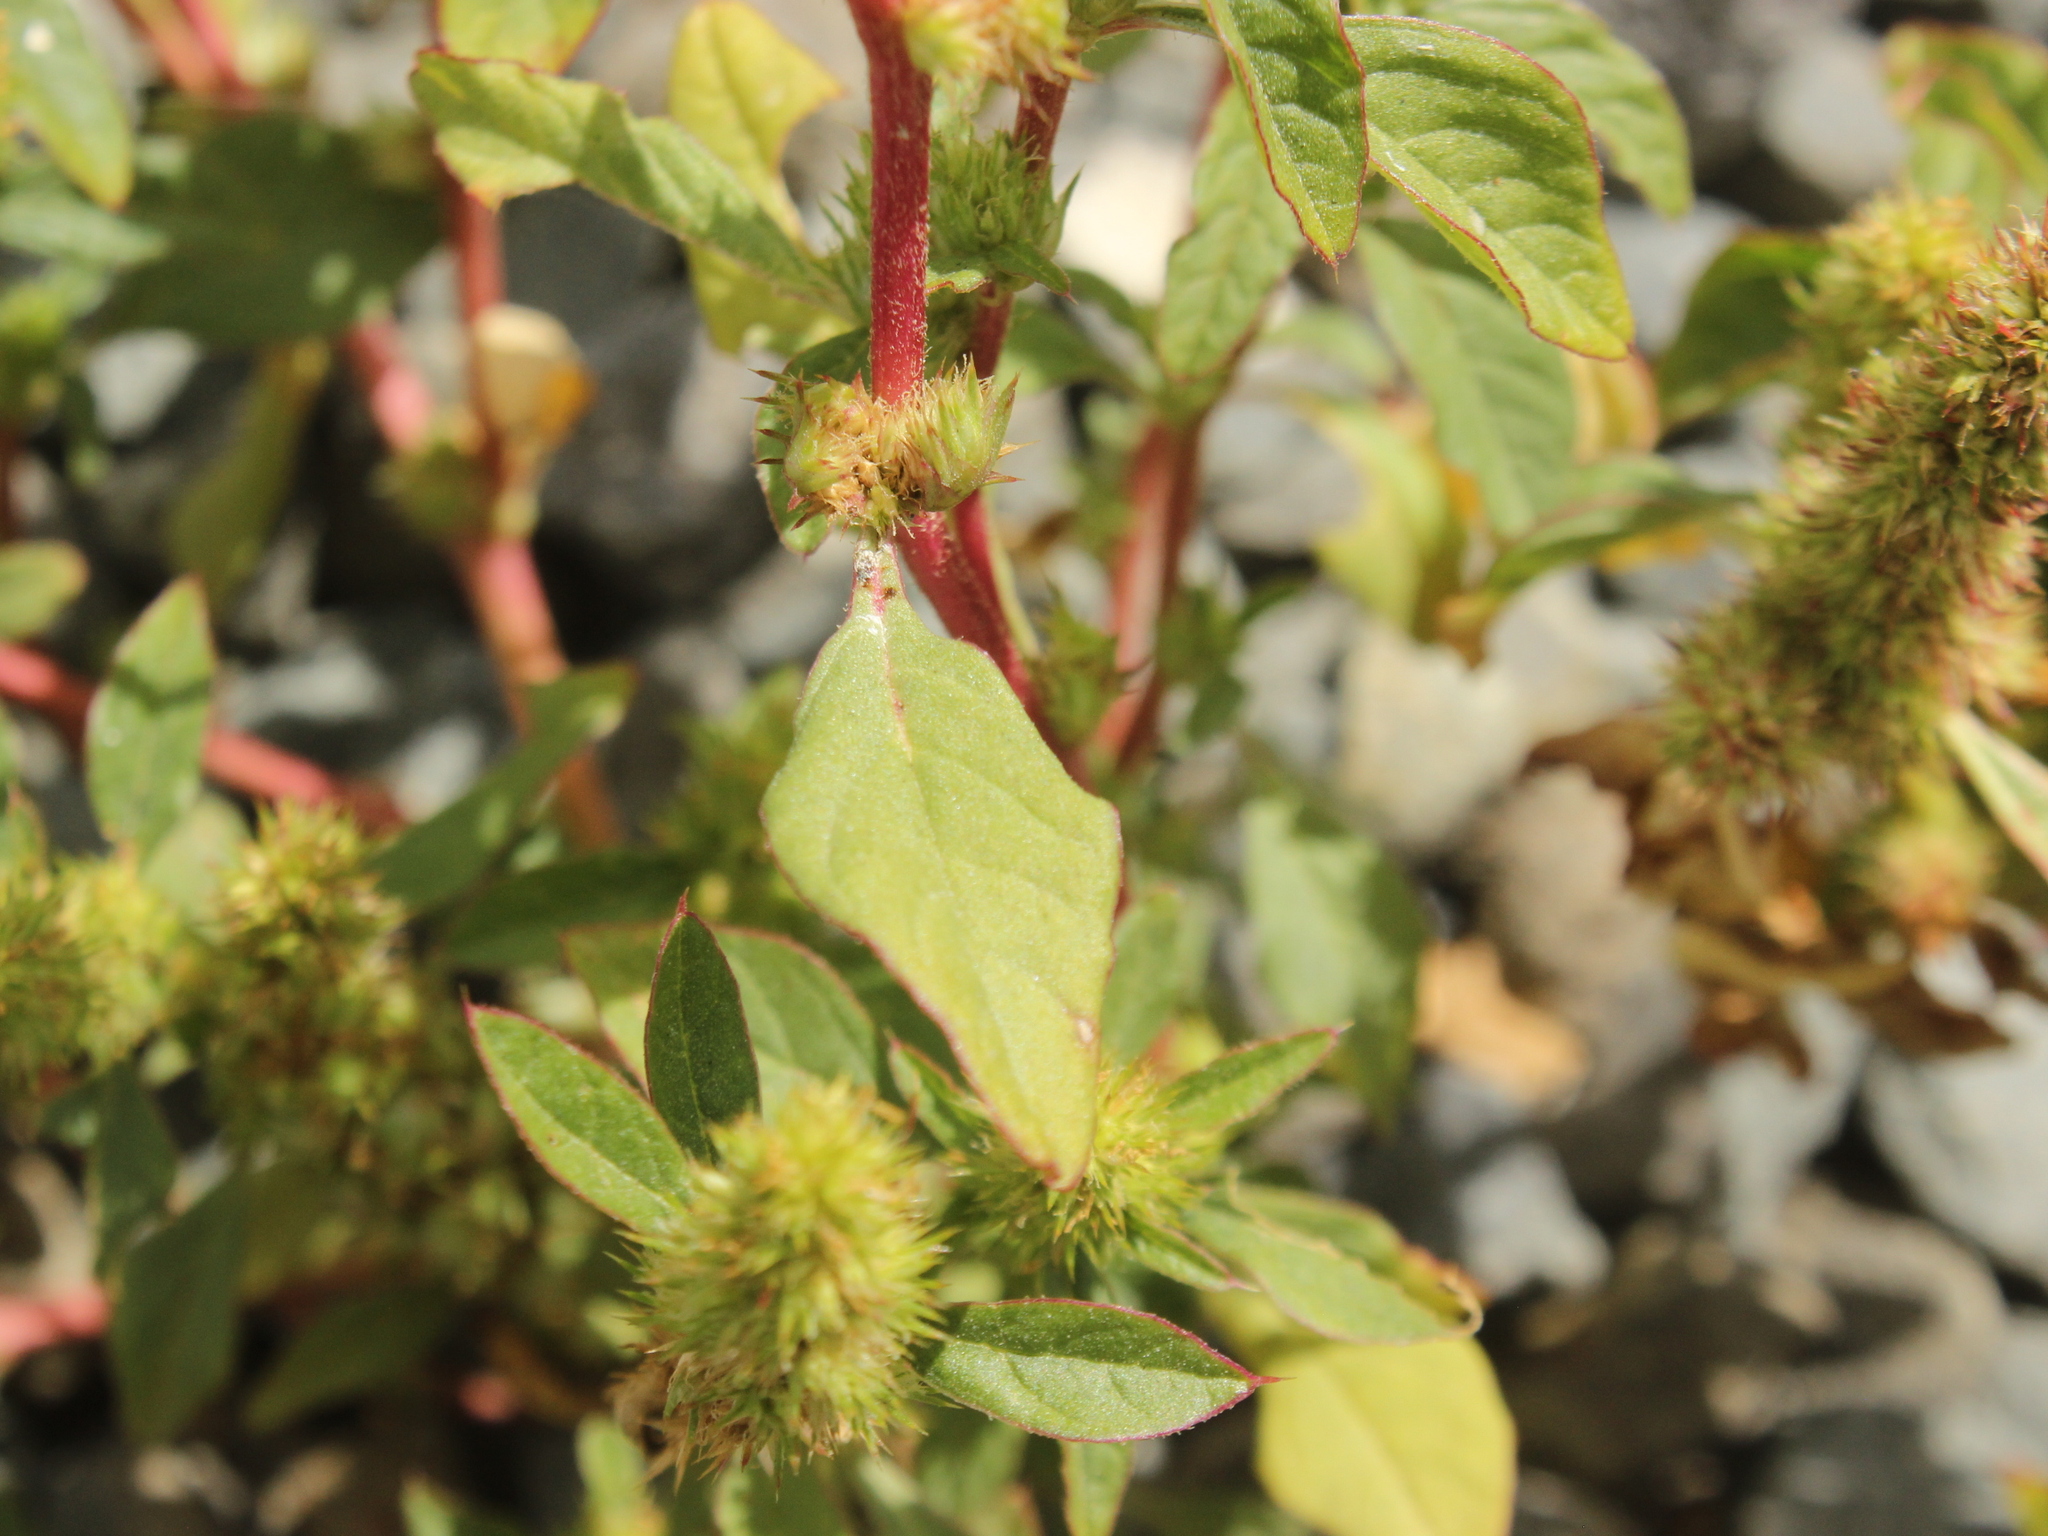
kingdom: Plantae
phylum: Tracheophyta
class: Magnoliopsida
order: Caryophyllales
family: Amaranthaceae
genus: Amaranthus
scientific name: Amaranthus powellii
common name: Powell's amaranth
